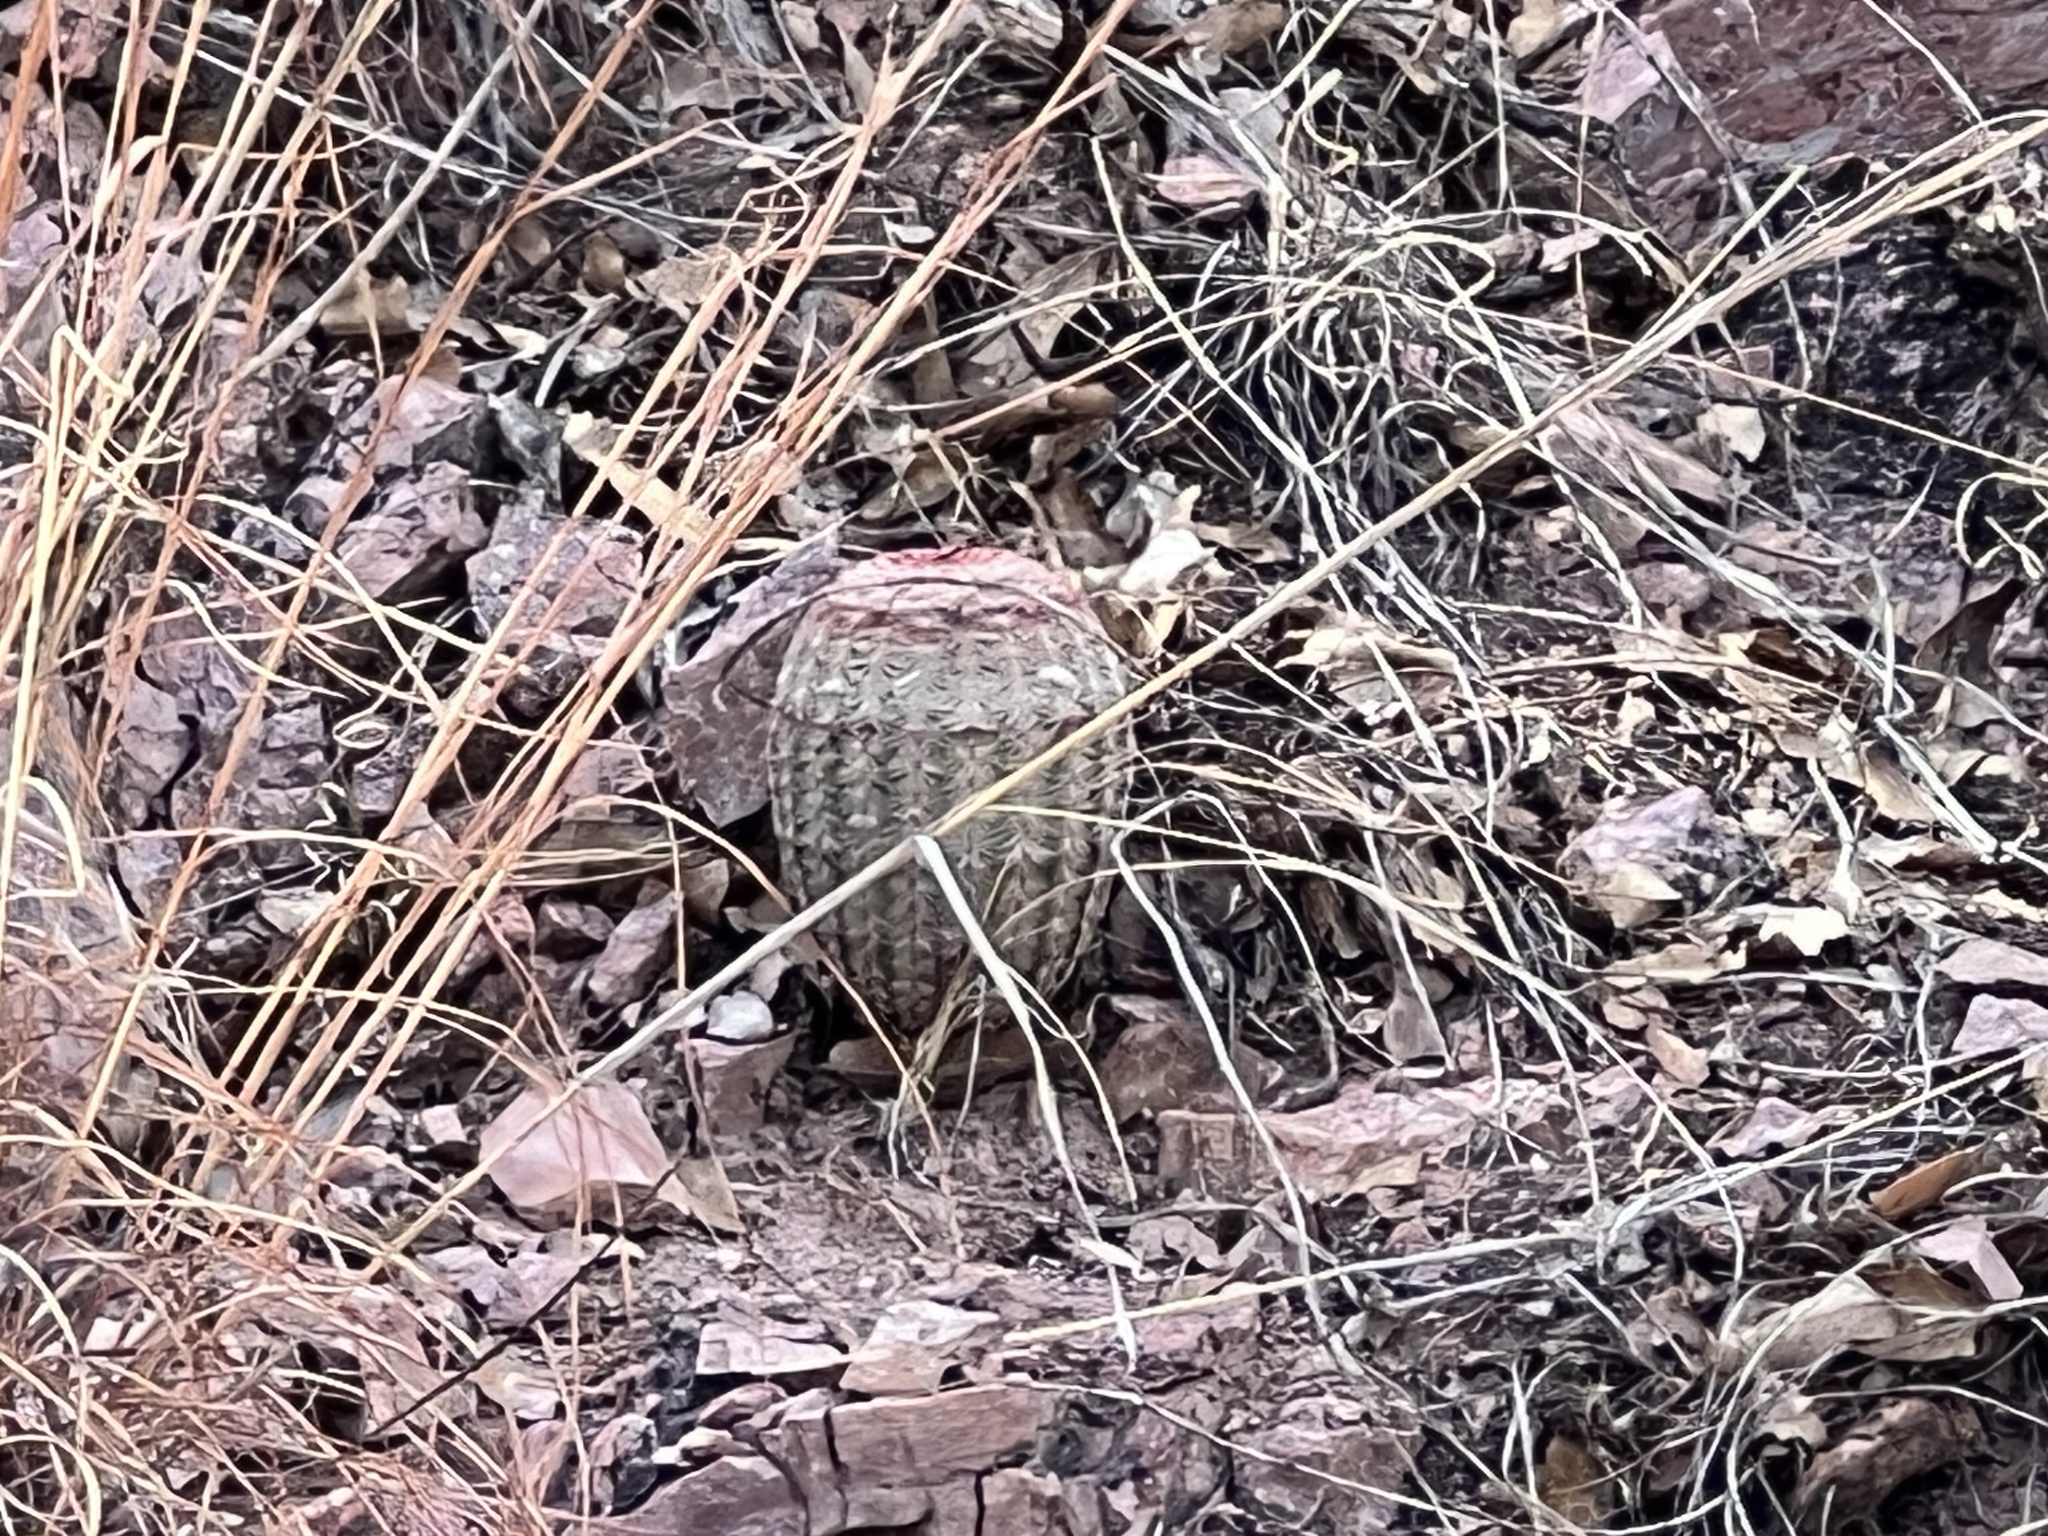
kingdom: Plantae
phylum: Tracheophyta
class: Magnoliopsida
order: Caryophyllales
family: Cactaceae
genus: Echinocereus
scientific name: Echinocereus rigidissimus
